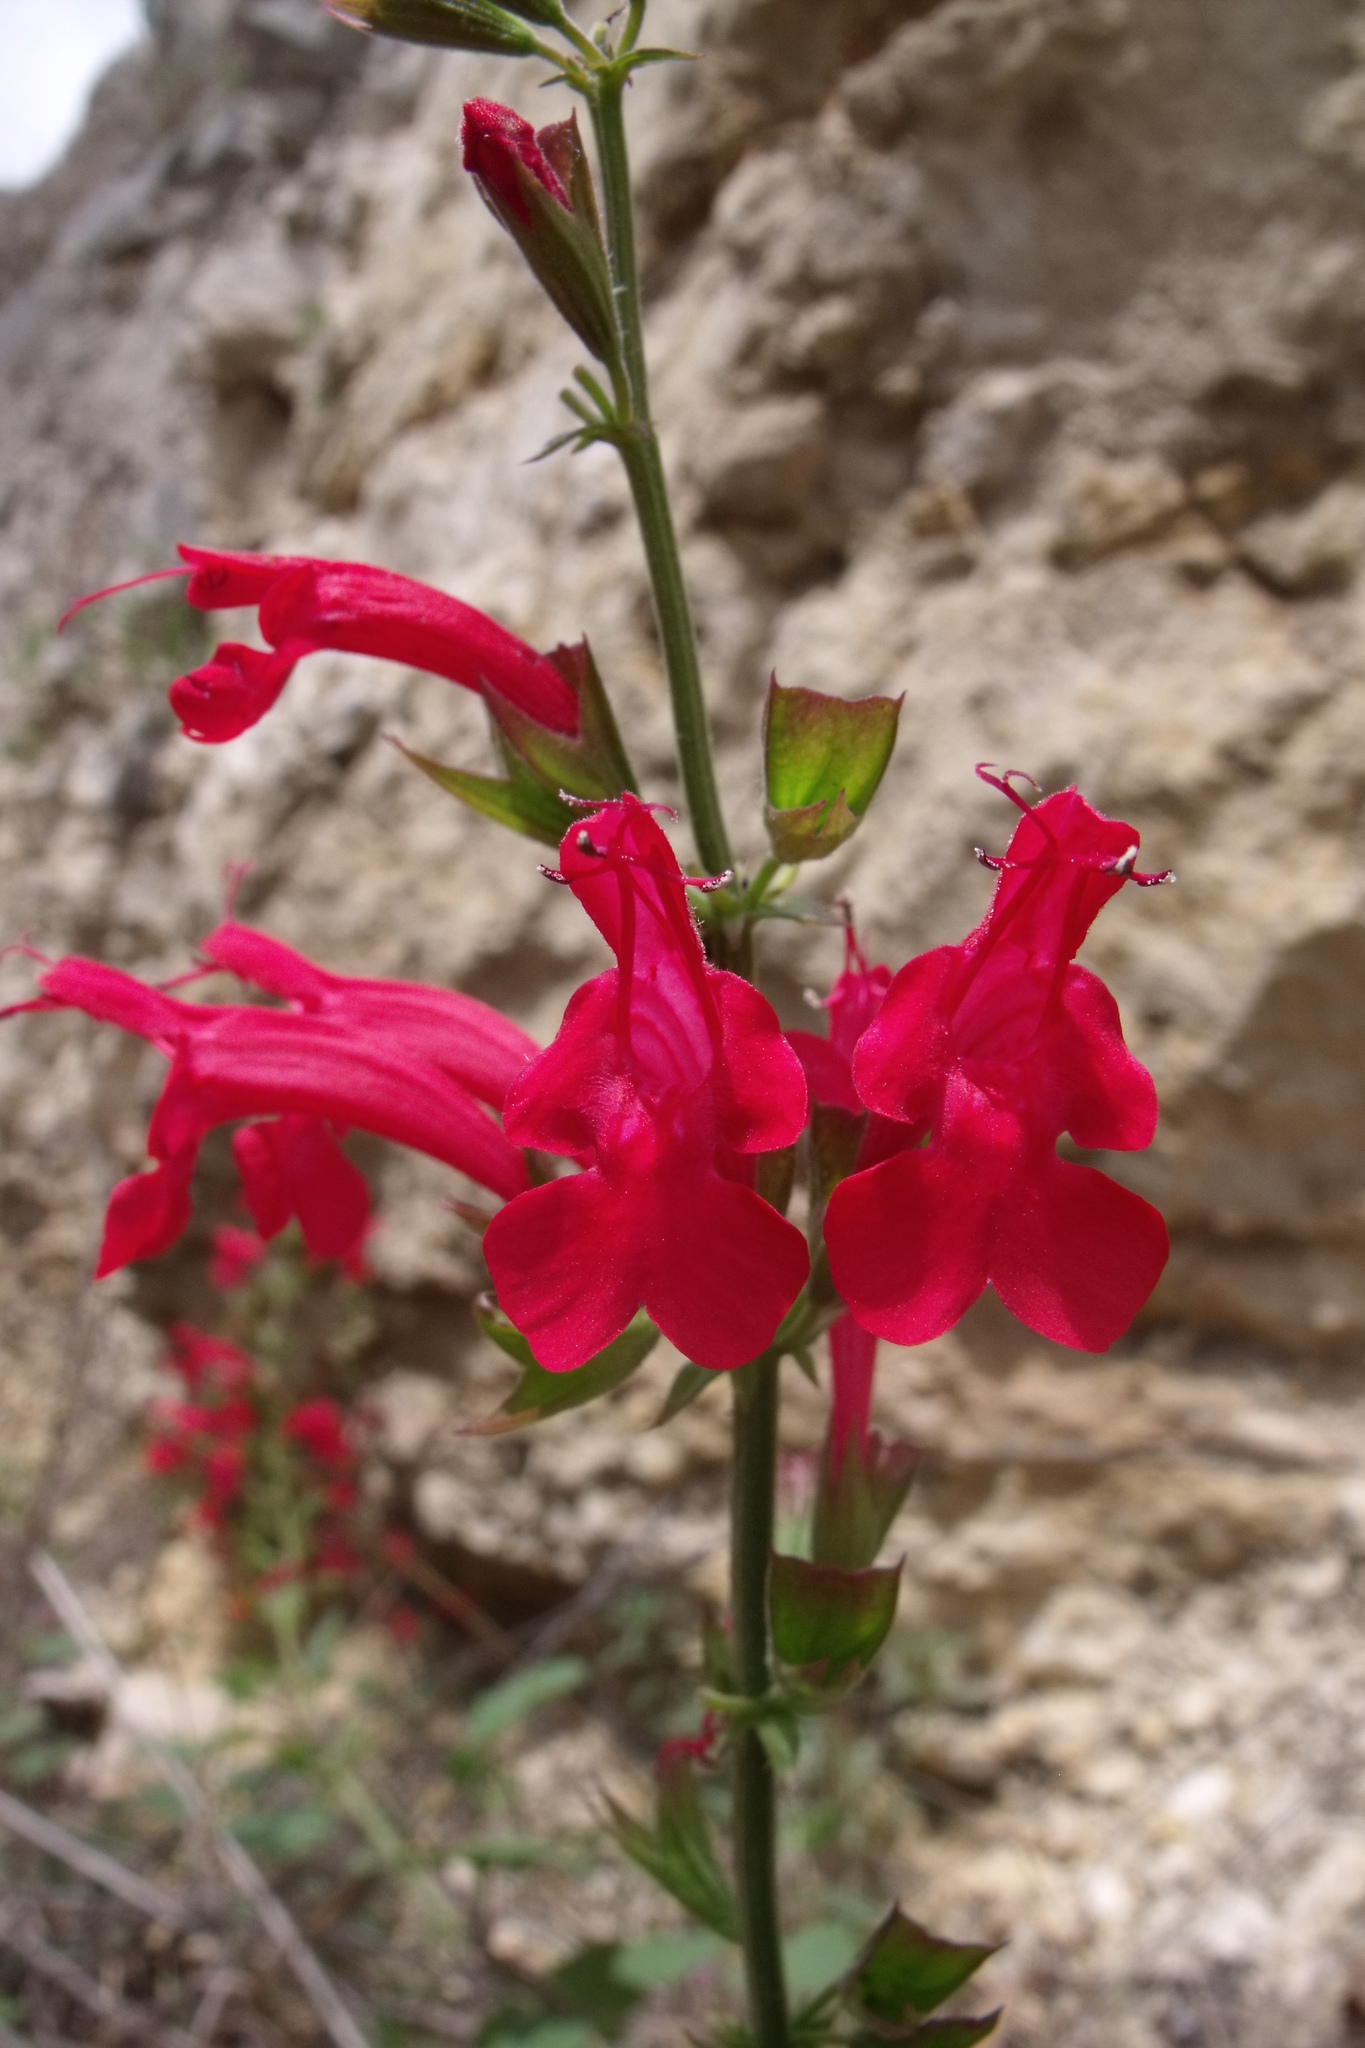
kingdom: Plantae
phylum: Tracheophyta
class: Magnoliopsida
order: Lamiales
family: Lamiaceae
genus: Salvia
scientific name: Salvia roemeriana
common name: Cedar sage
